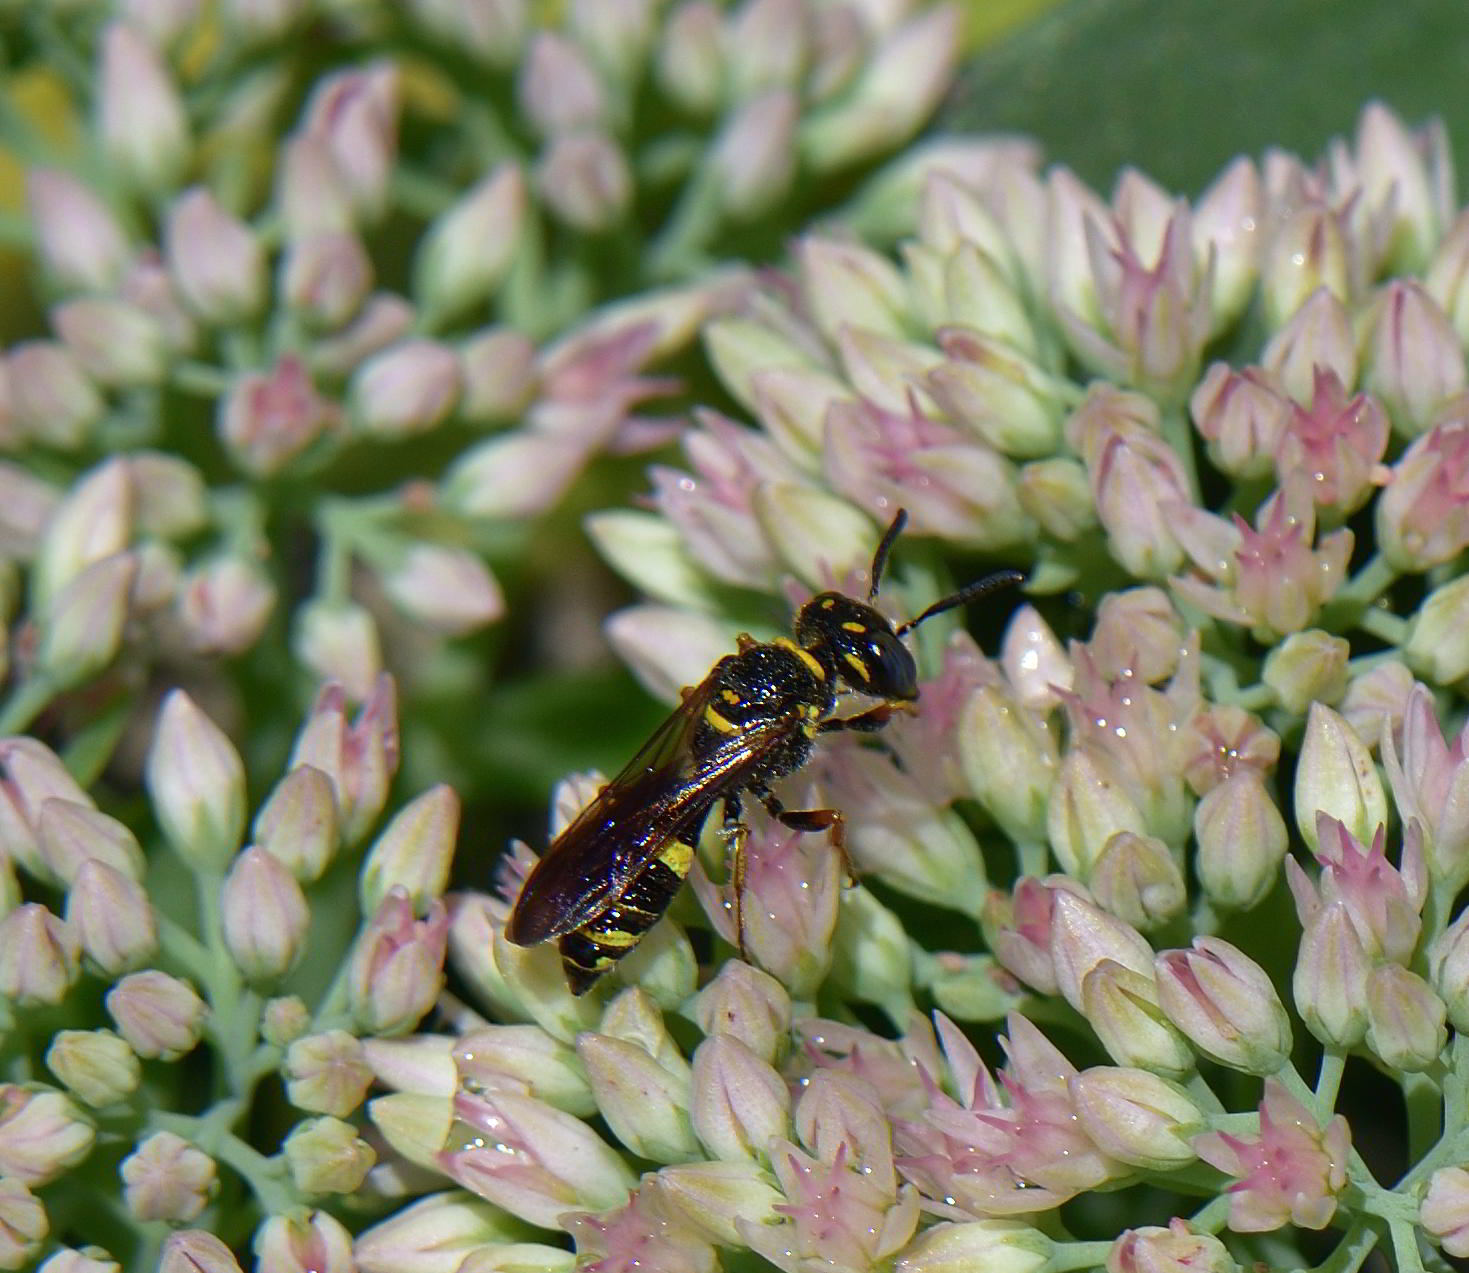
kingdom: Animalia
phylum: Arthropoda
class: Insecta
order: Hymenoptera
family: Crabronidae
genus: Philanthus
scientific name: Philanthus gibbosus
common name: Humped beewolf
